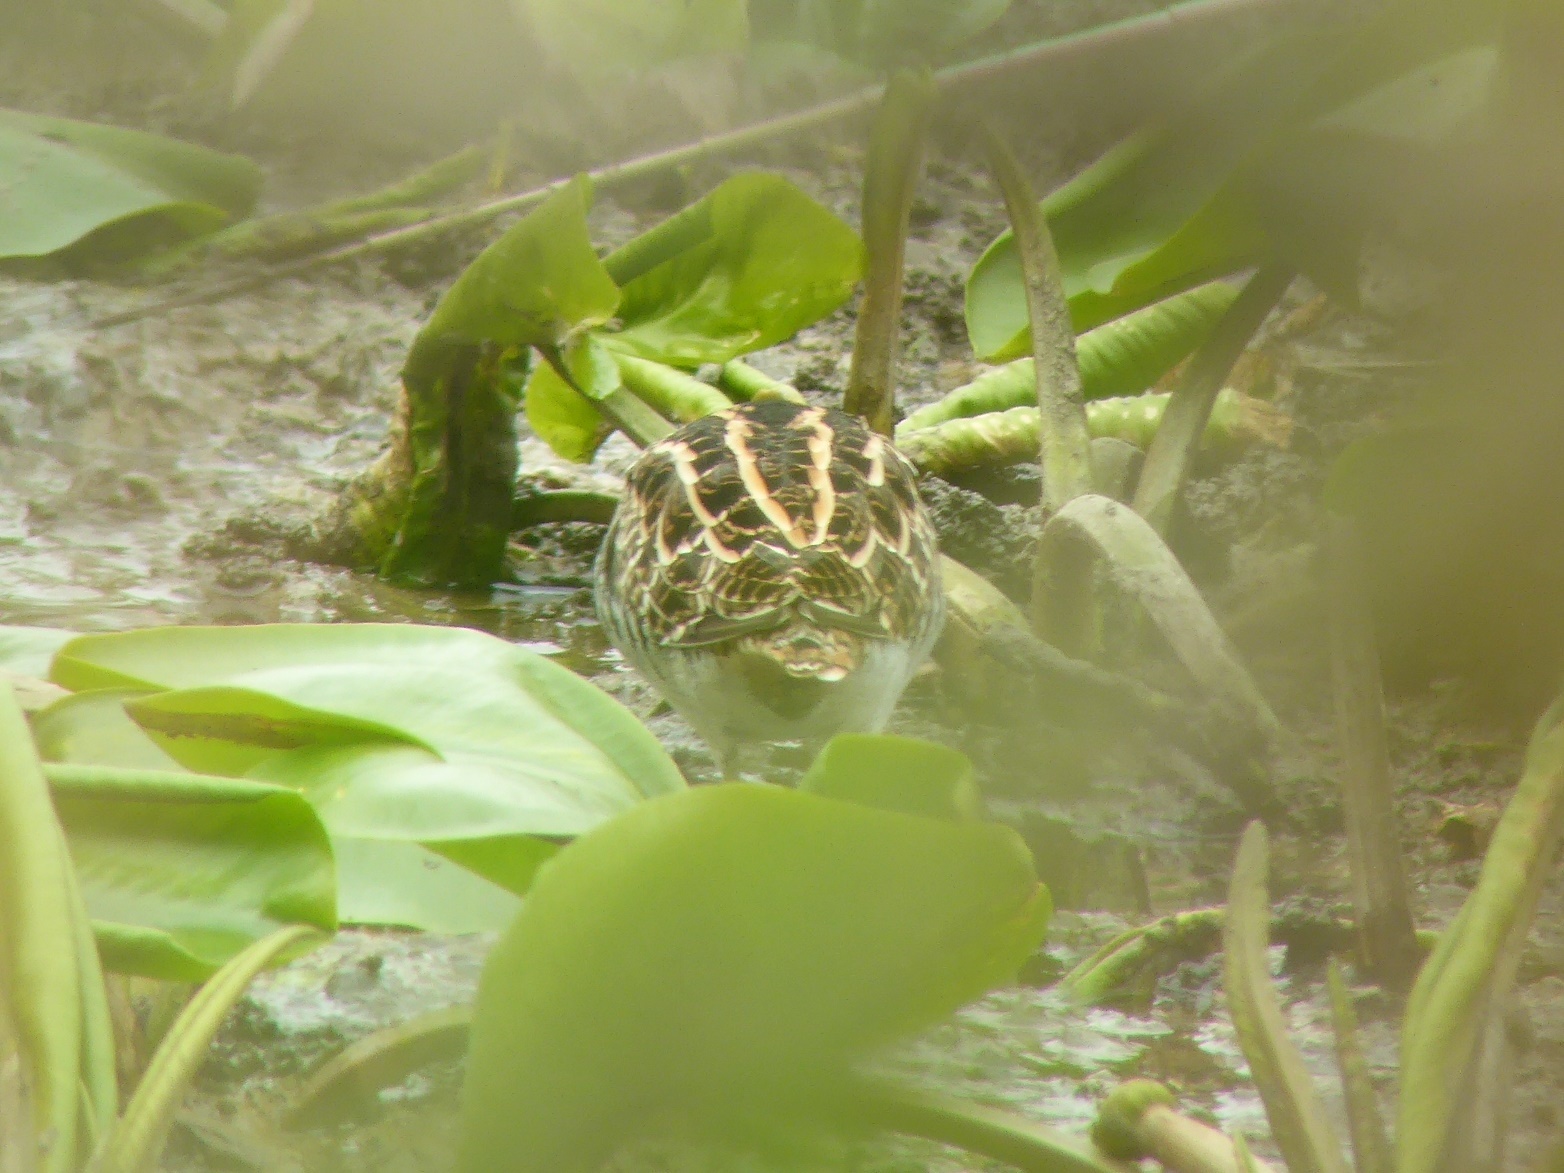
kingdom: Animalia
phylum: Chordata
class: Aves
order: Charadriiformes
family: Scolopacidae
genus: Gallinago
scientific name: Gallinago gallinago
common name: Common snipe
